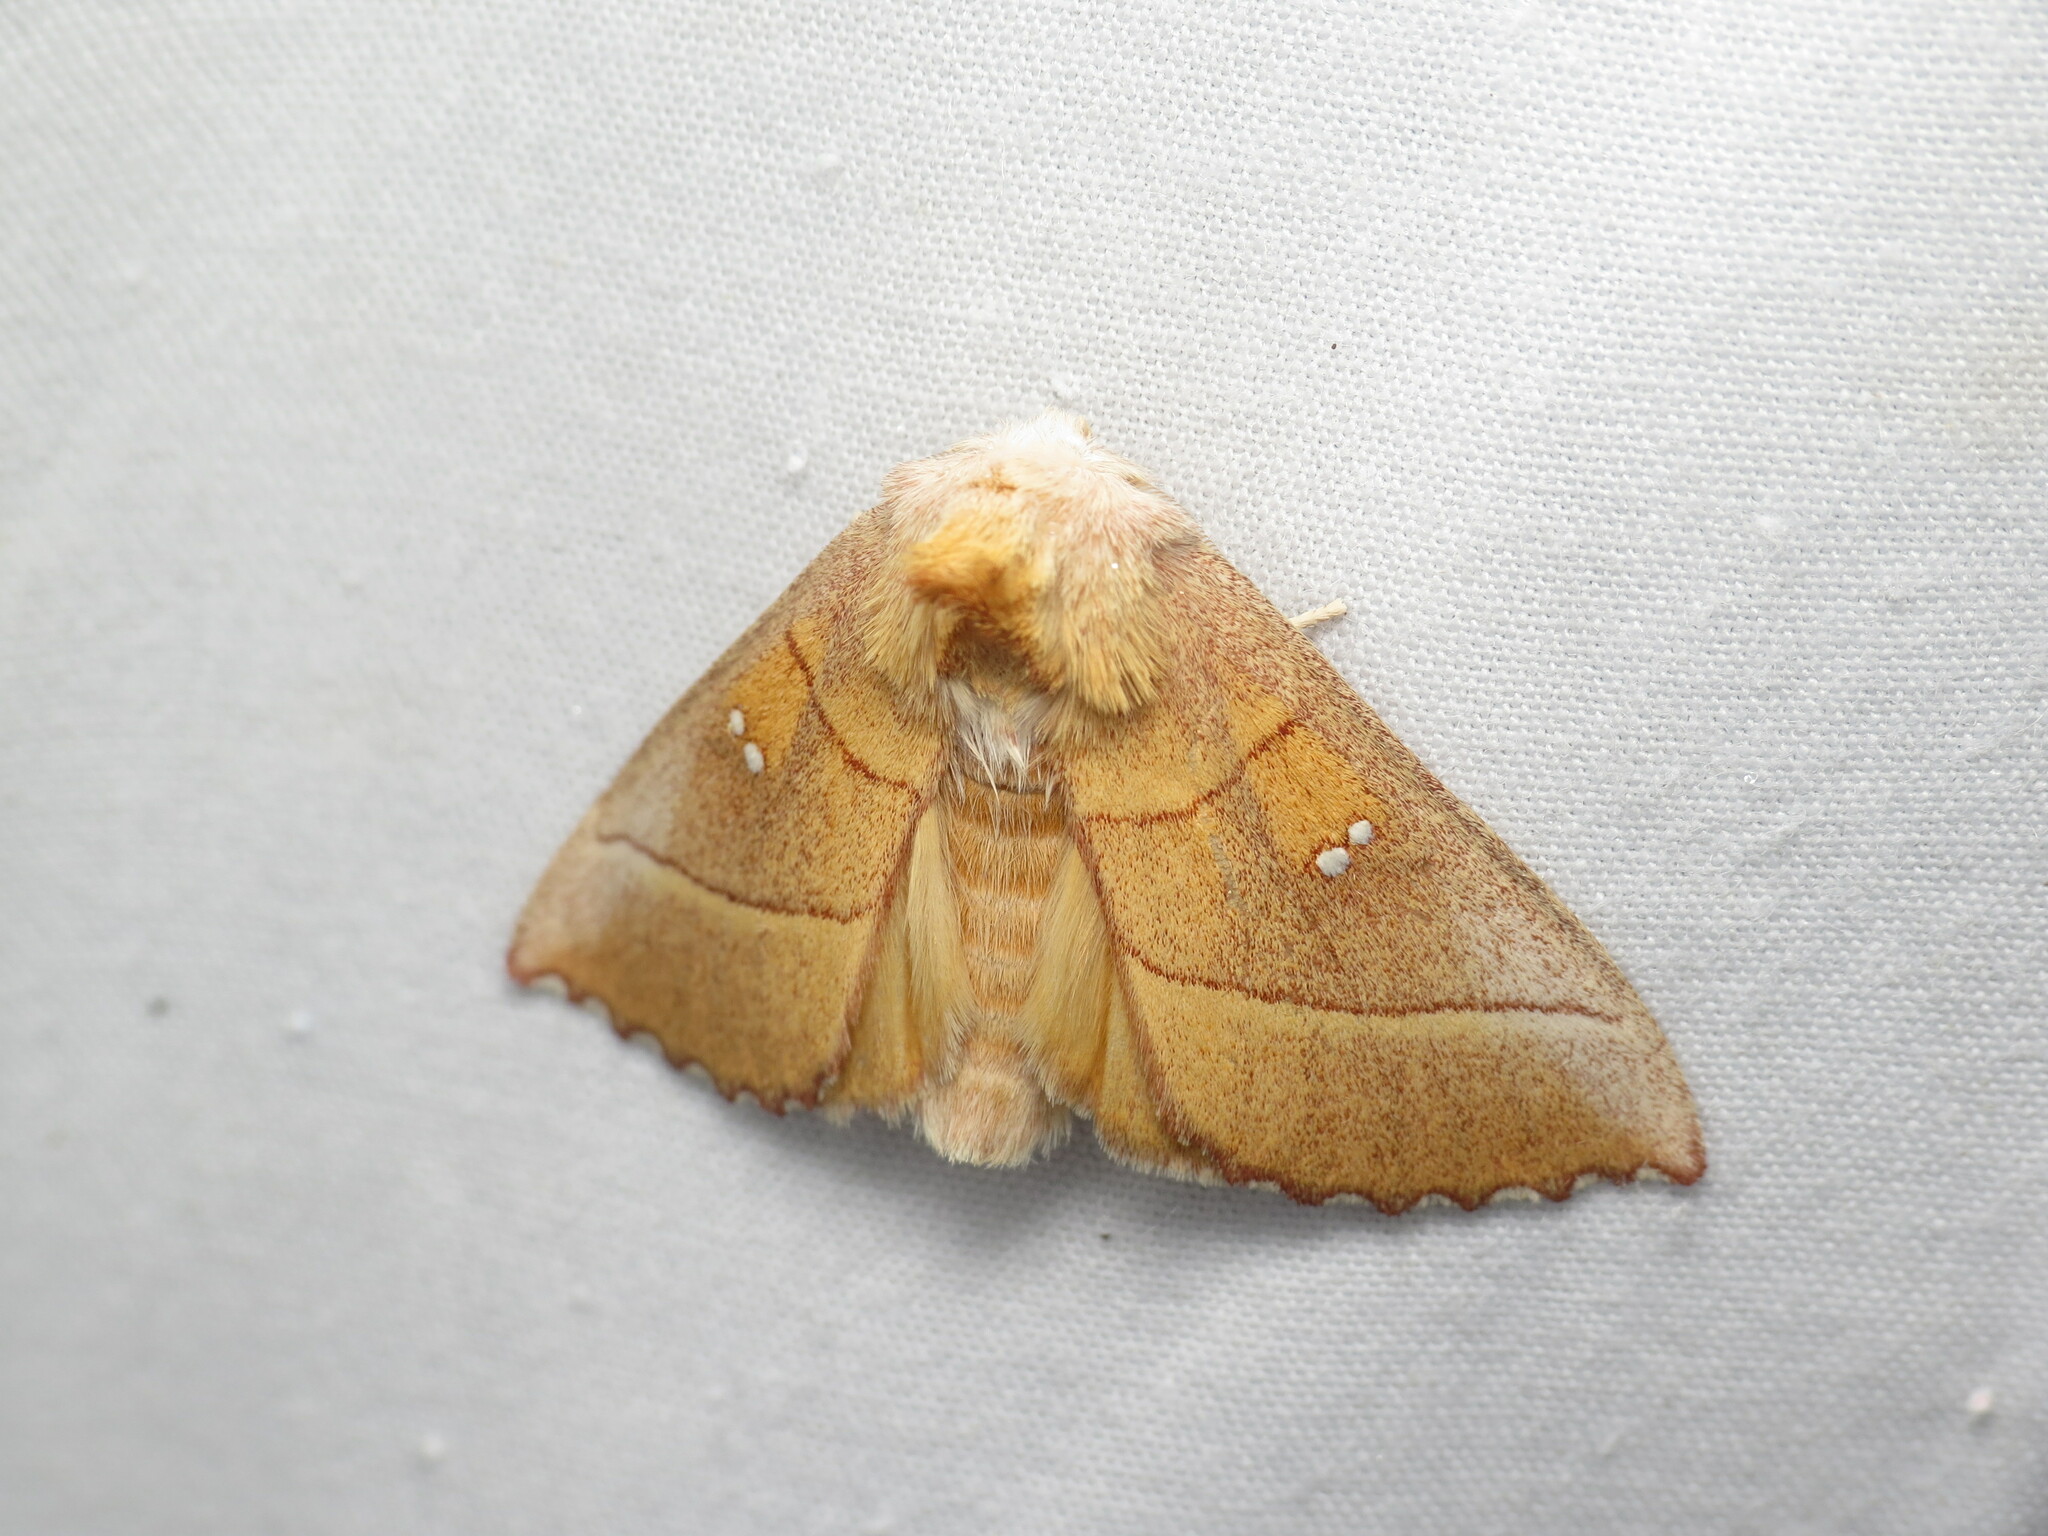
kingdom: Animalia
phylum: Arthropoda
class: Insecta
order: Lepidoptera
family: Notodontidae
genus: Nadata
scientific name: Nadata gibbosa
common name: White-dotted prominent
